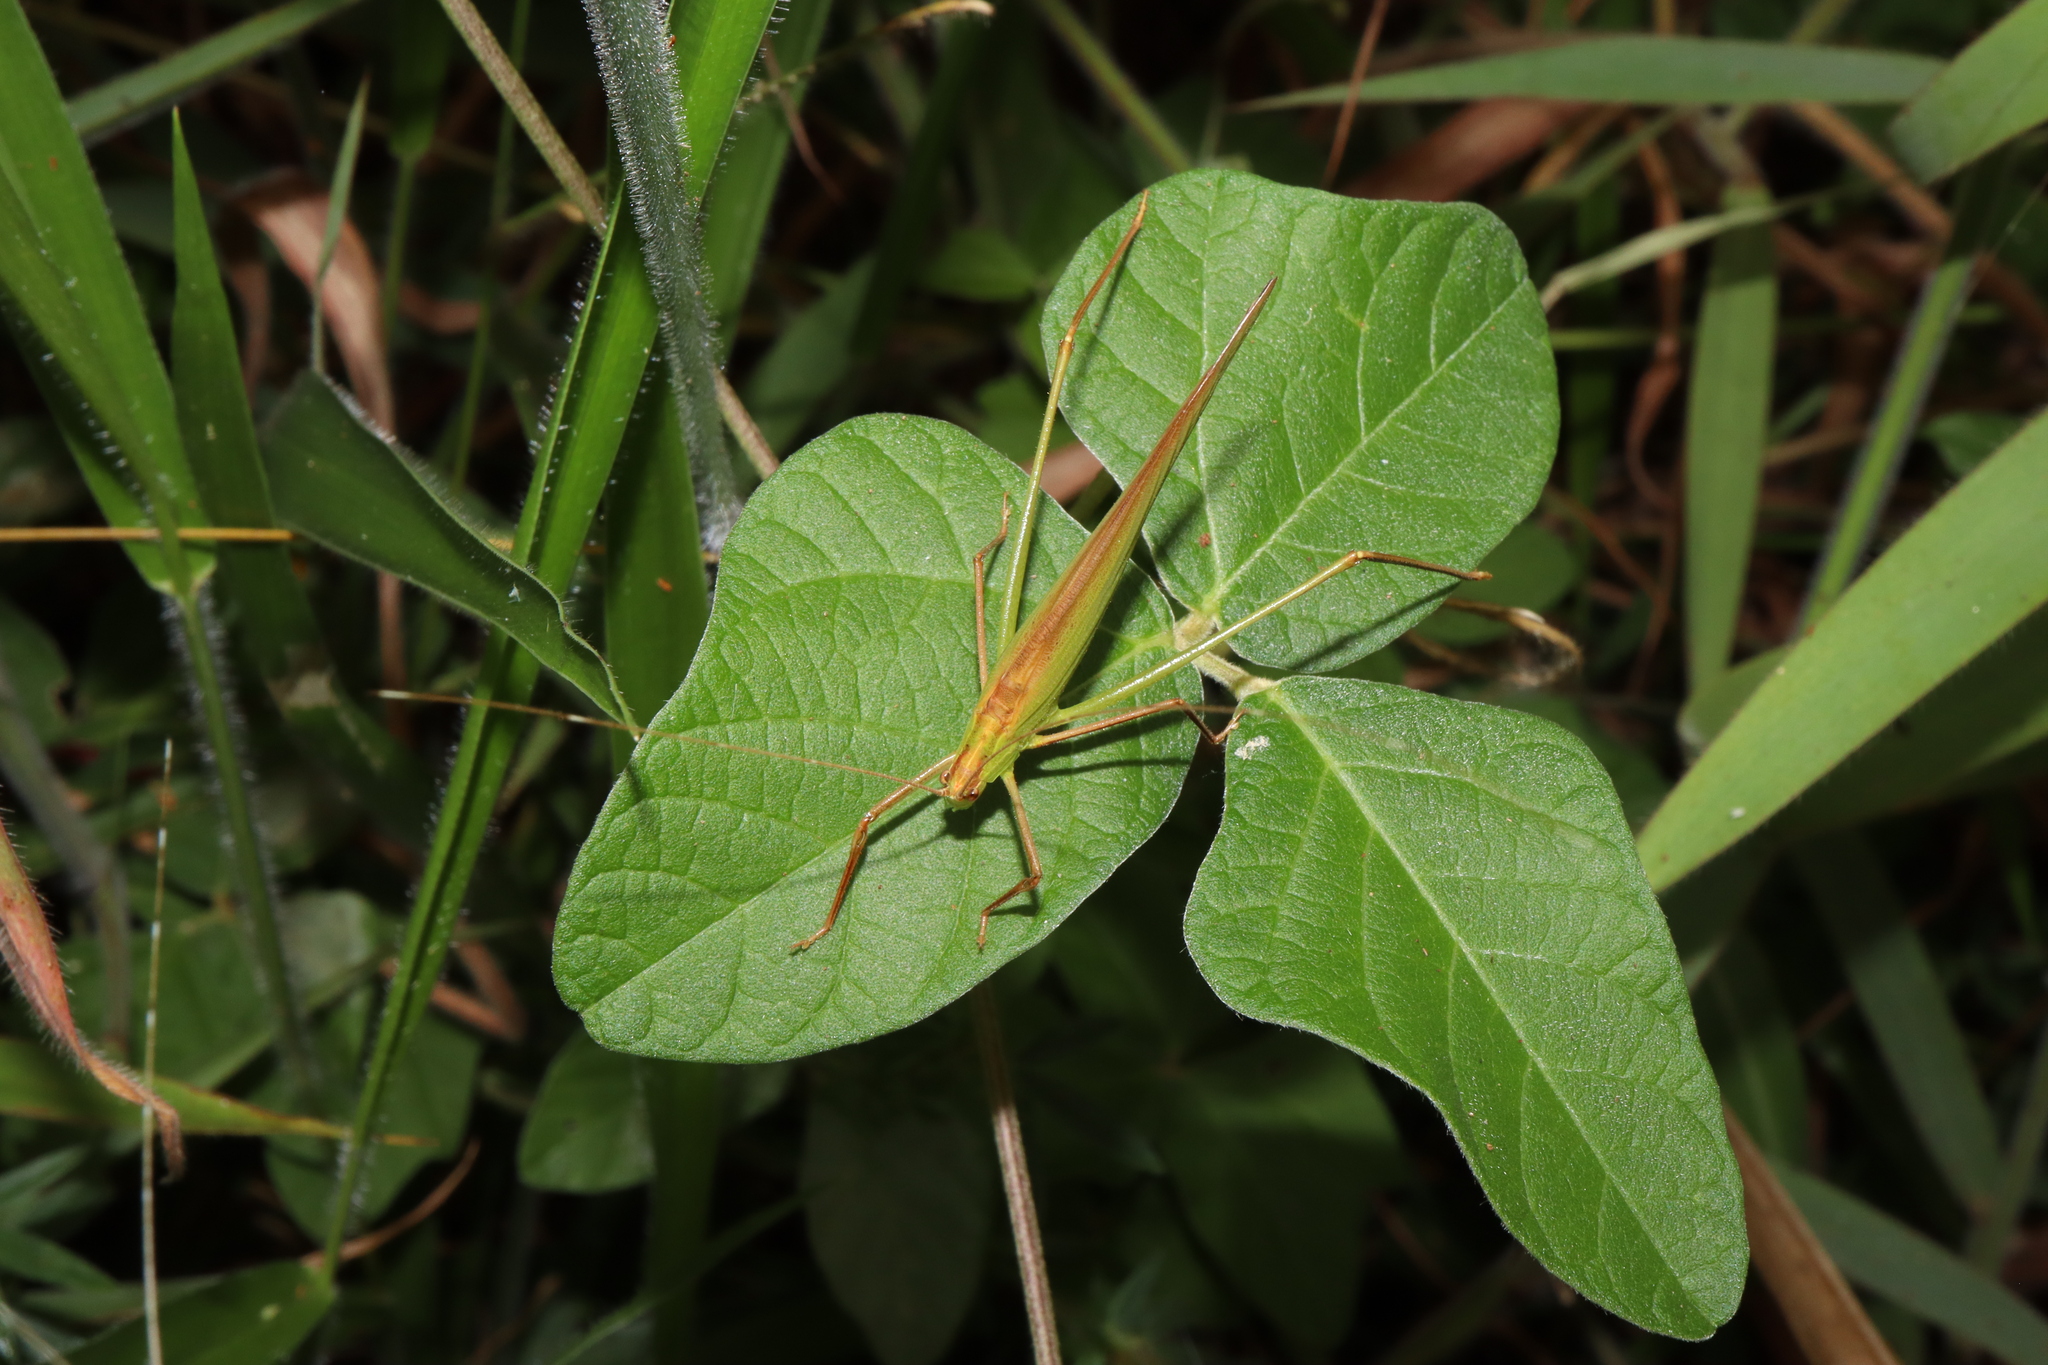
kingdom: Animalia
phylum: Arthropoda
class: Insecta
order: Orthoptera
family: Tettigoniidae
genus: Ducetia
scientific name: Ducetia antipoda
